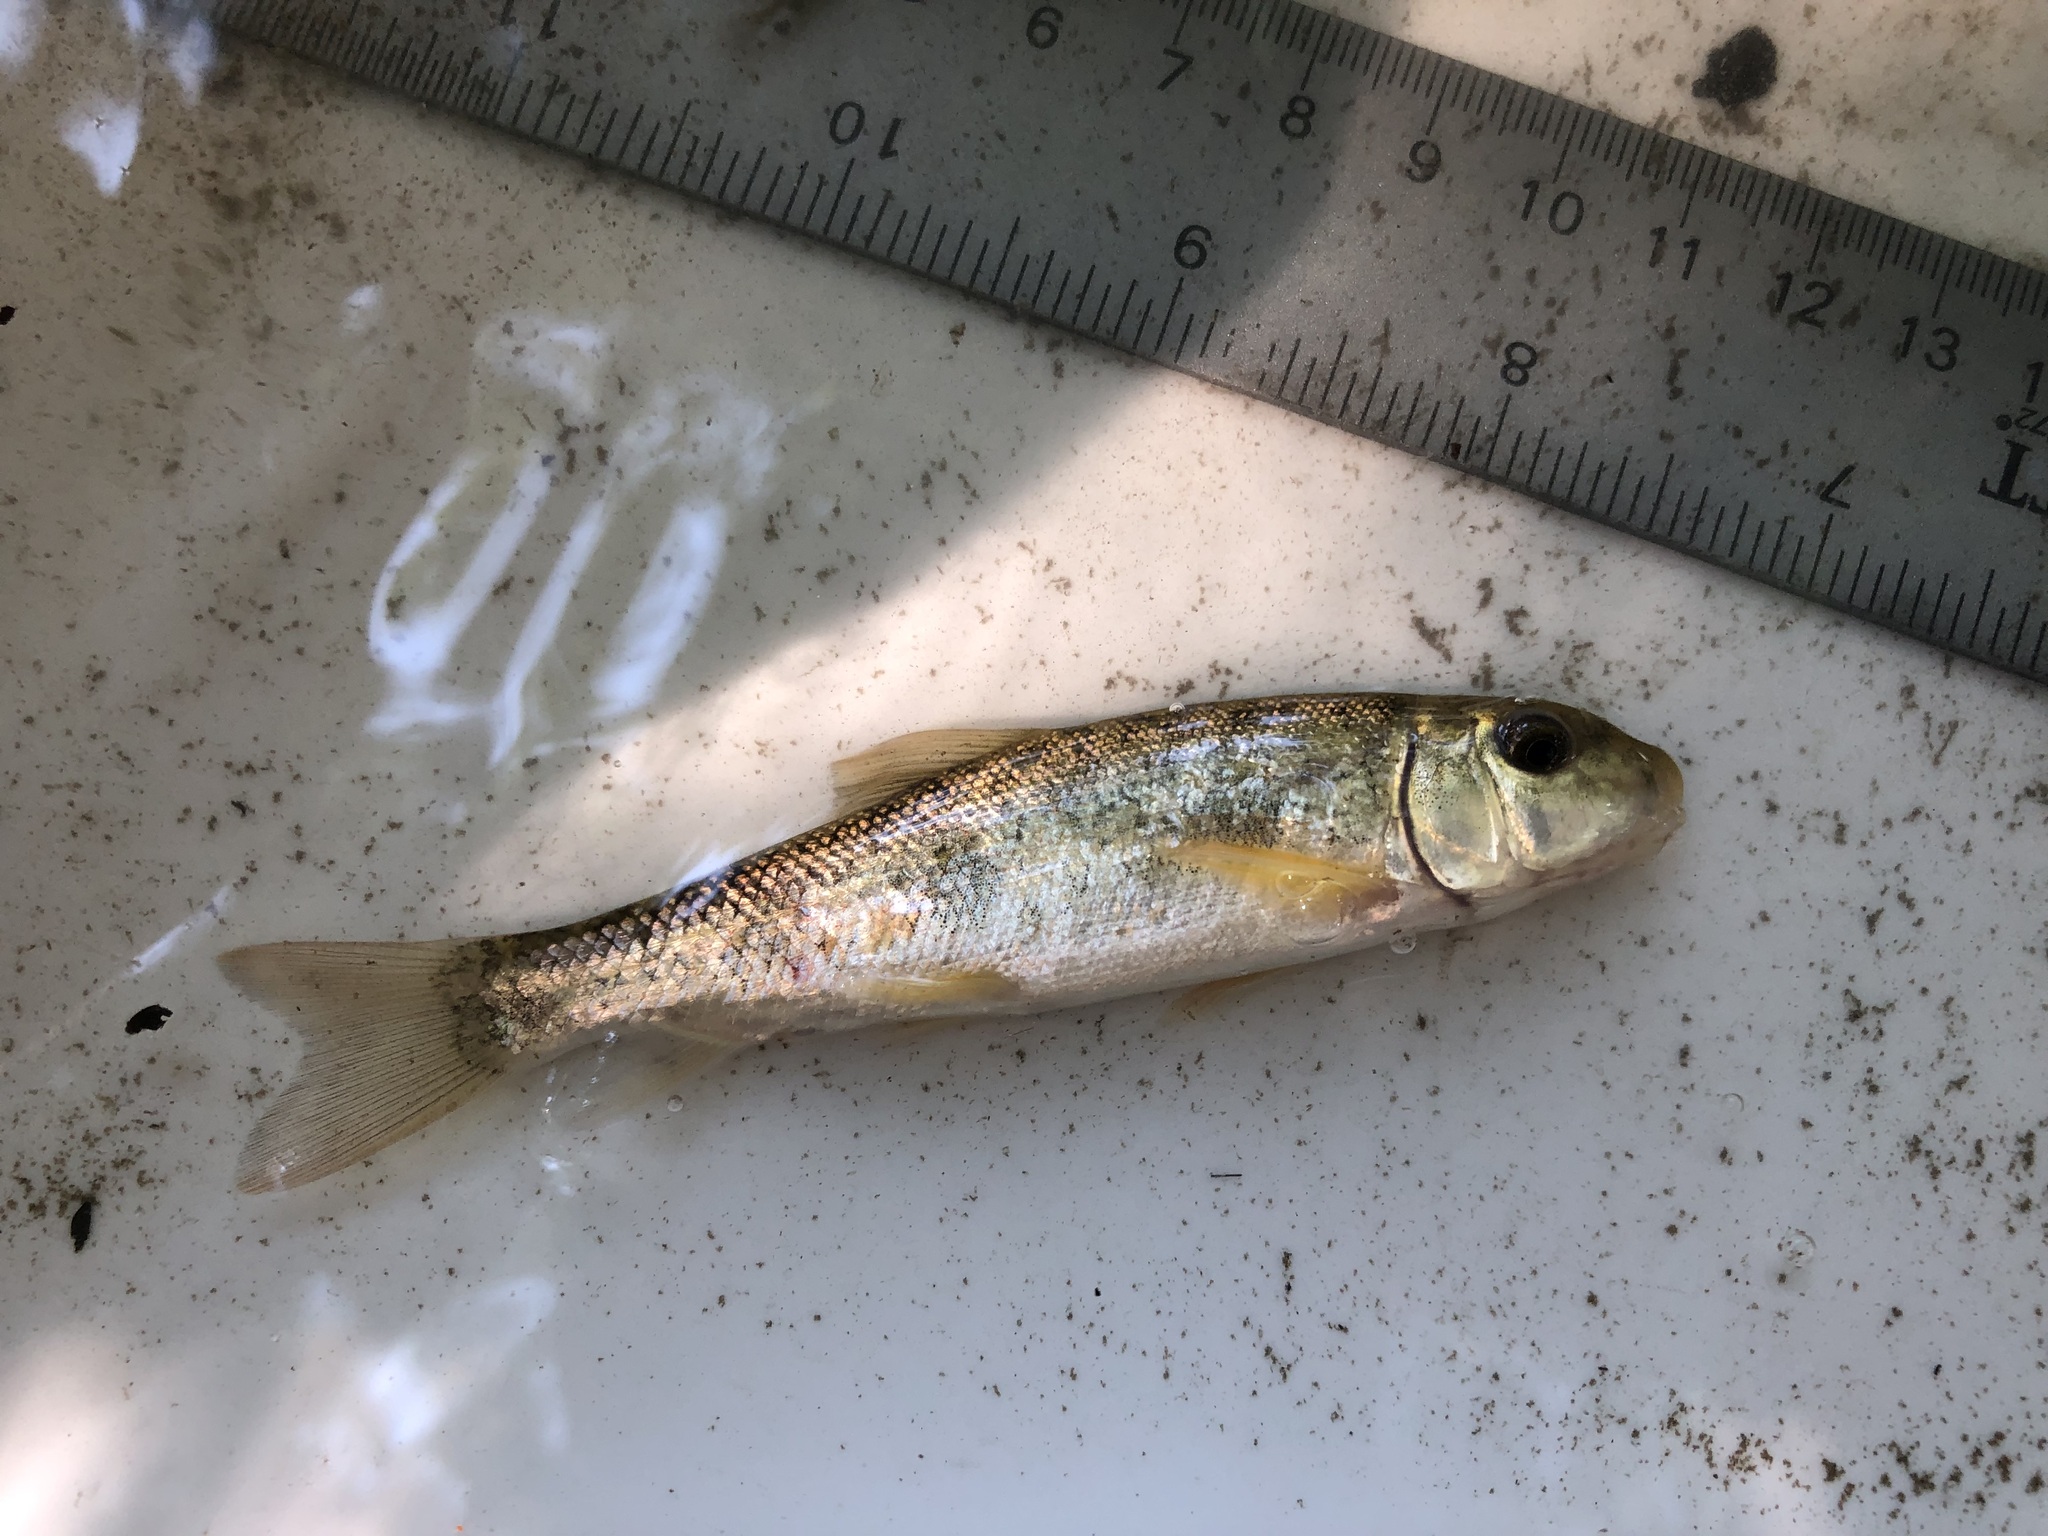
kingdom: Animalia
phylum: Chordata
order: Cypriniformes
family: Catostomidae
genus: Catostomus
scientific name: Catostomus commersonii
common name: White sucker
